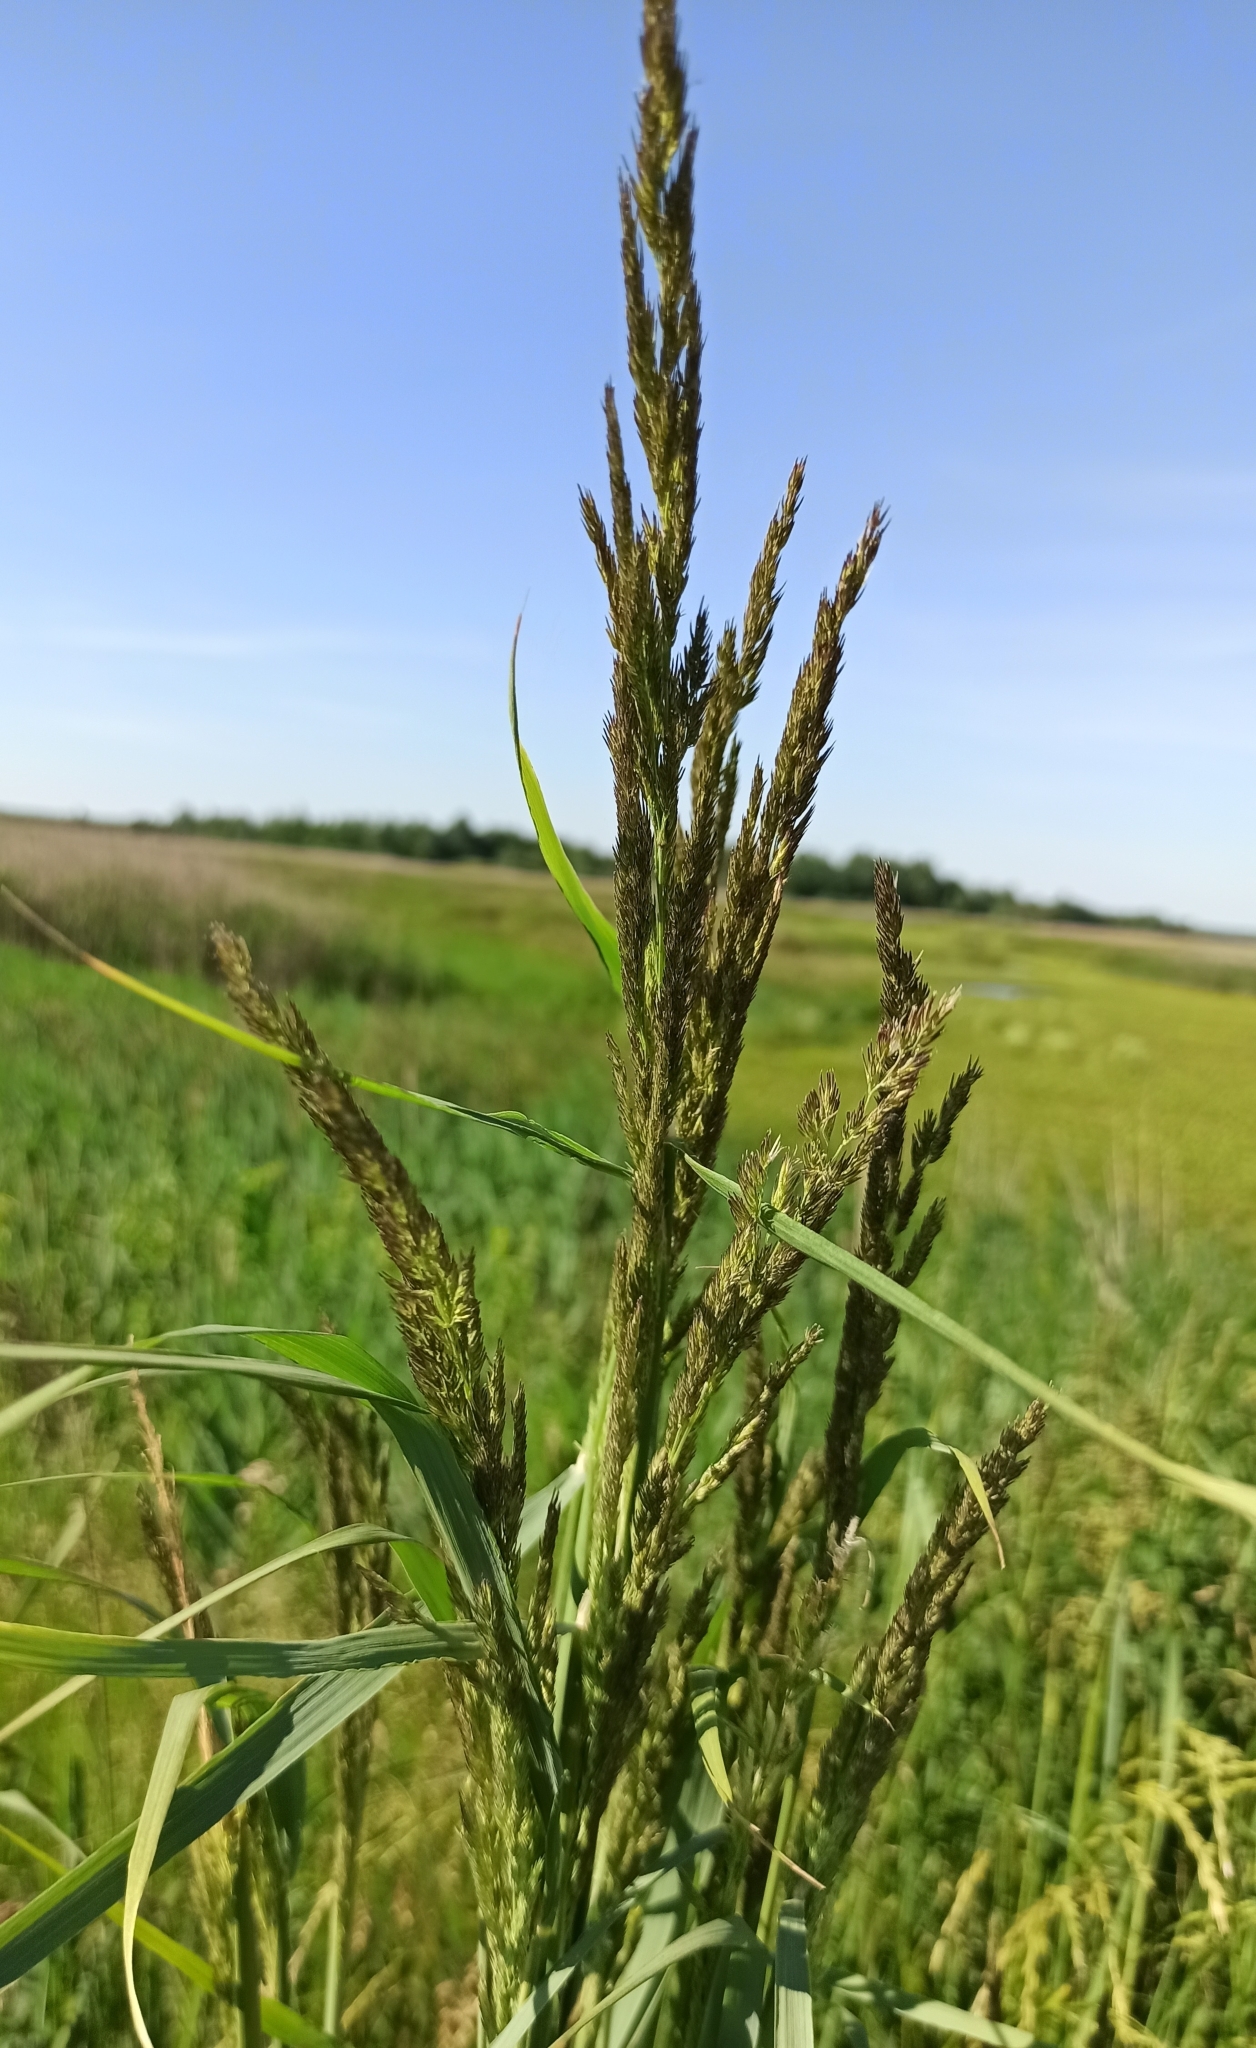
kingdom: Plantae
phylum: Tracheophyta
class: Liliopsida
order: Poales
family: Poaceae
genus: Calamagrostis
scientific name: Calamagrostis epigejos
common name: Wood small-reed
